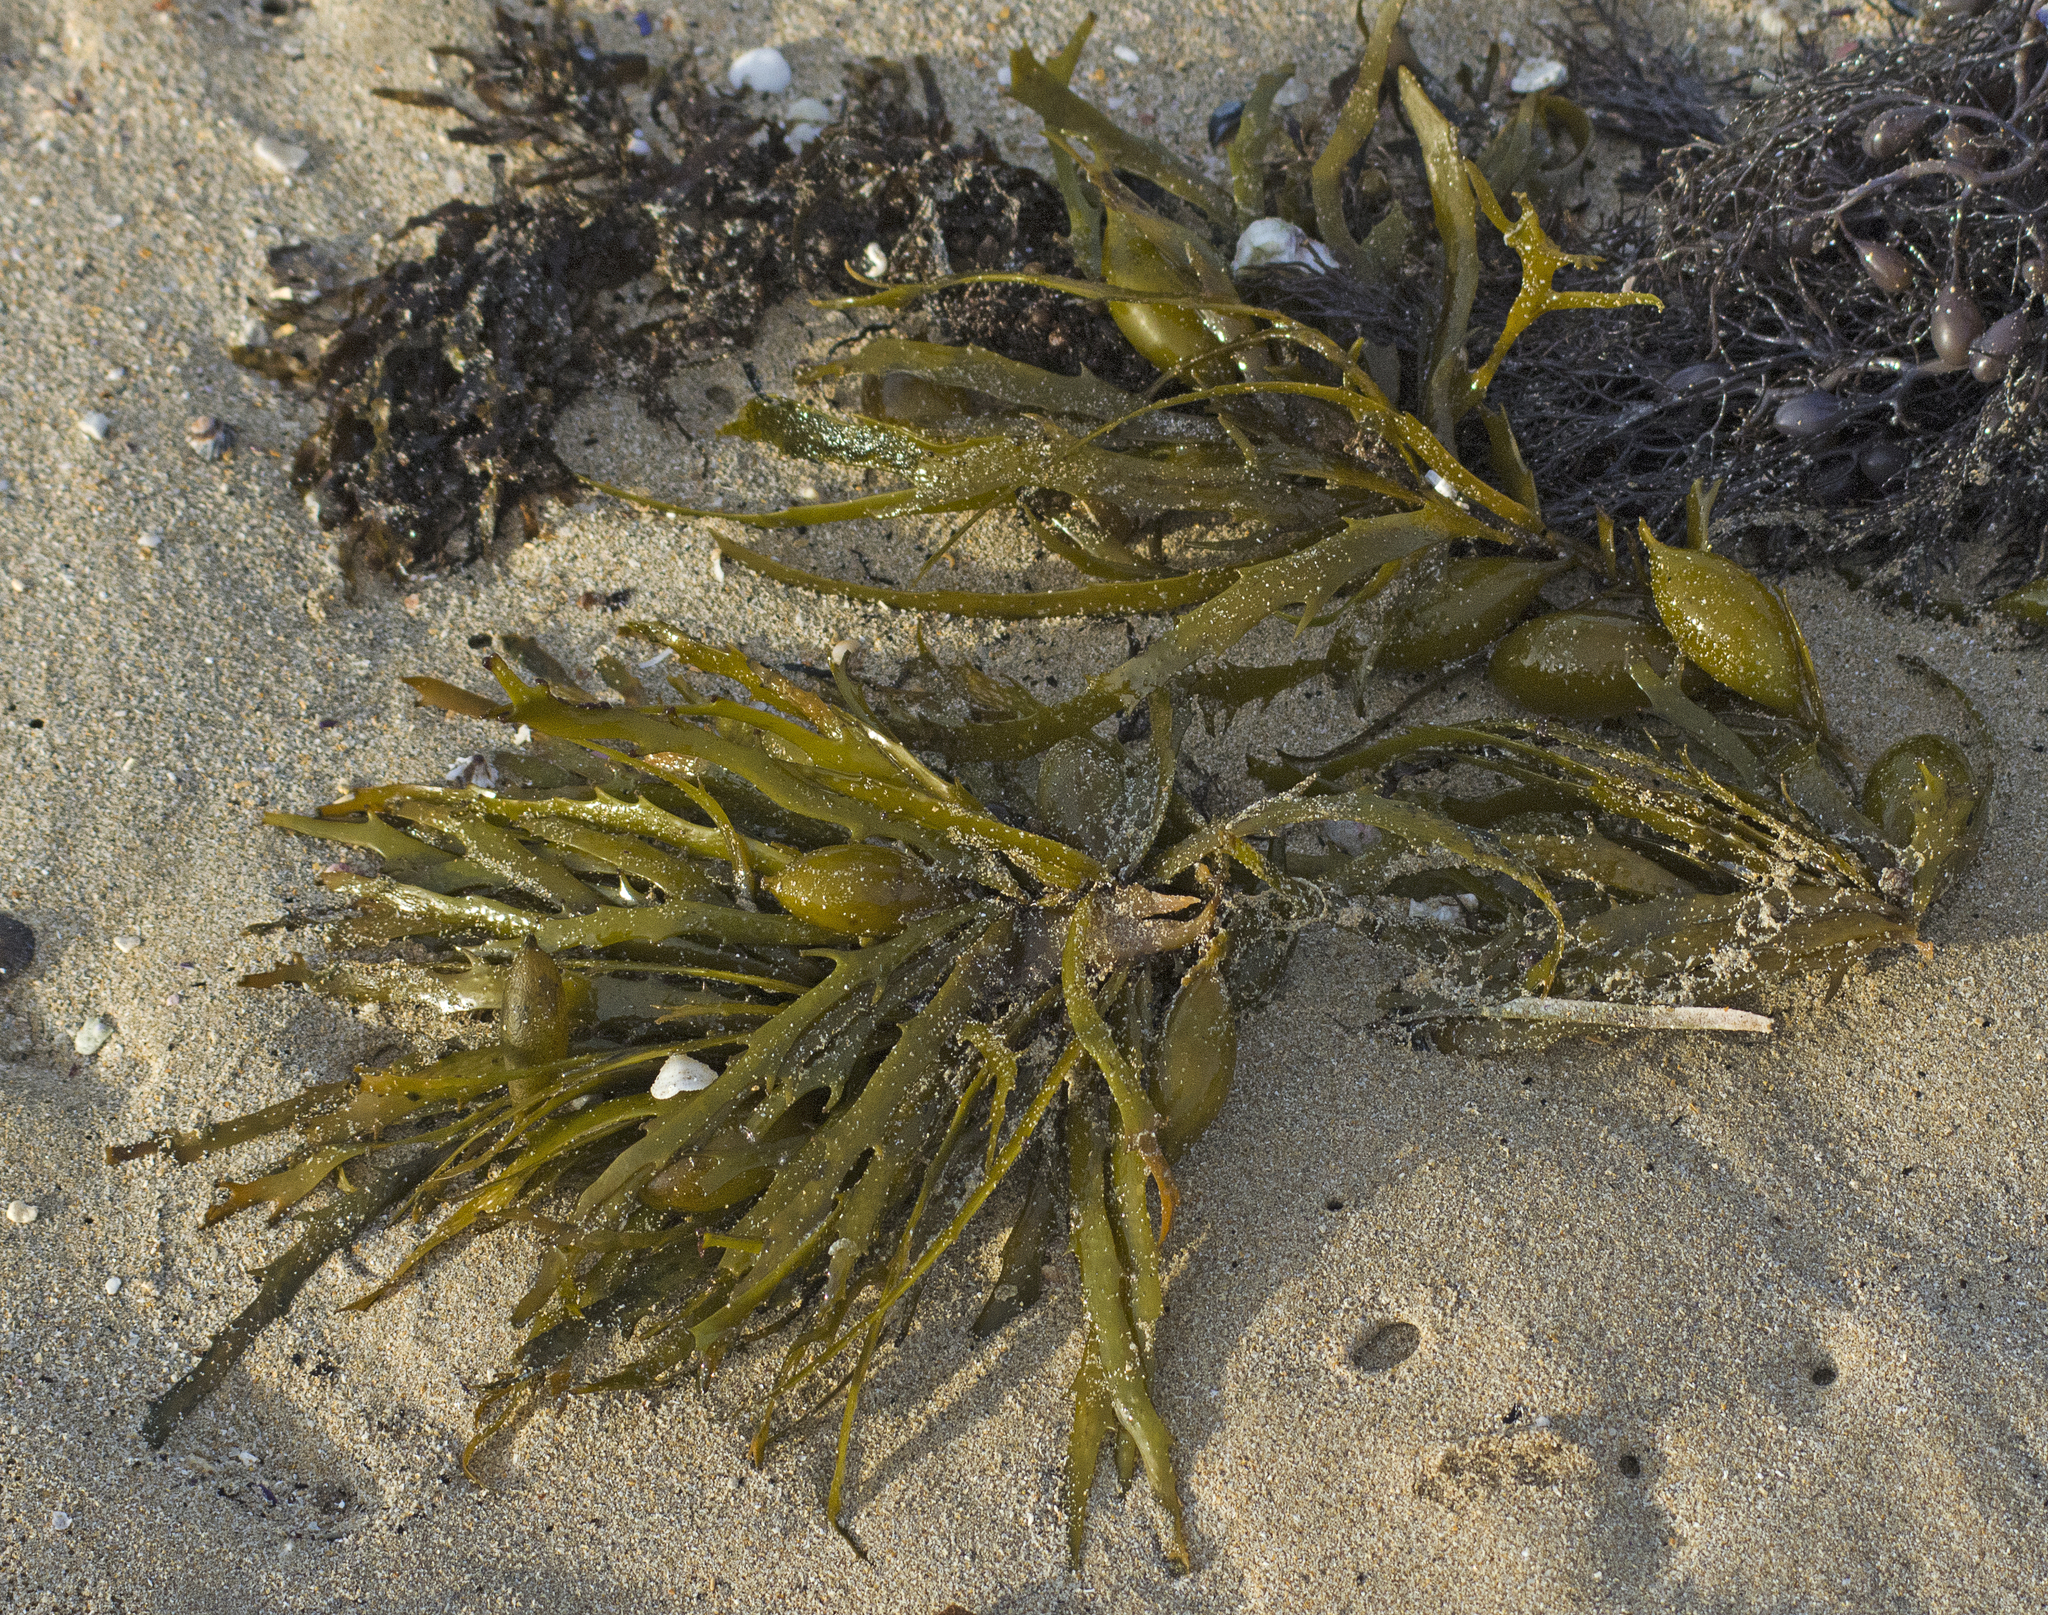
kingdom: Chromista
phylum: Ochrophyta
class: Phaeophyceae
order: Fucales
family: Seirococcaceae
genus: Phyllospora
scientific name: Phyllospora
